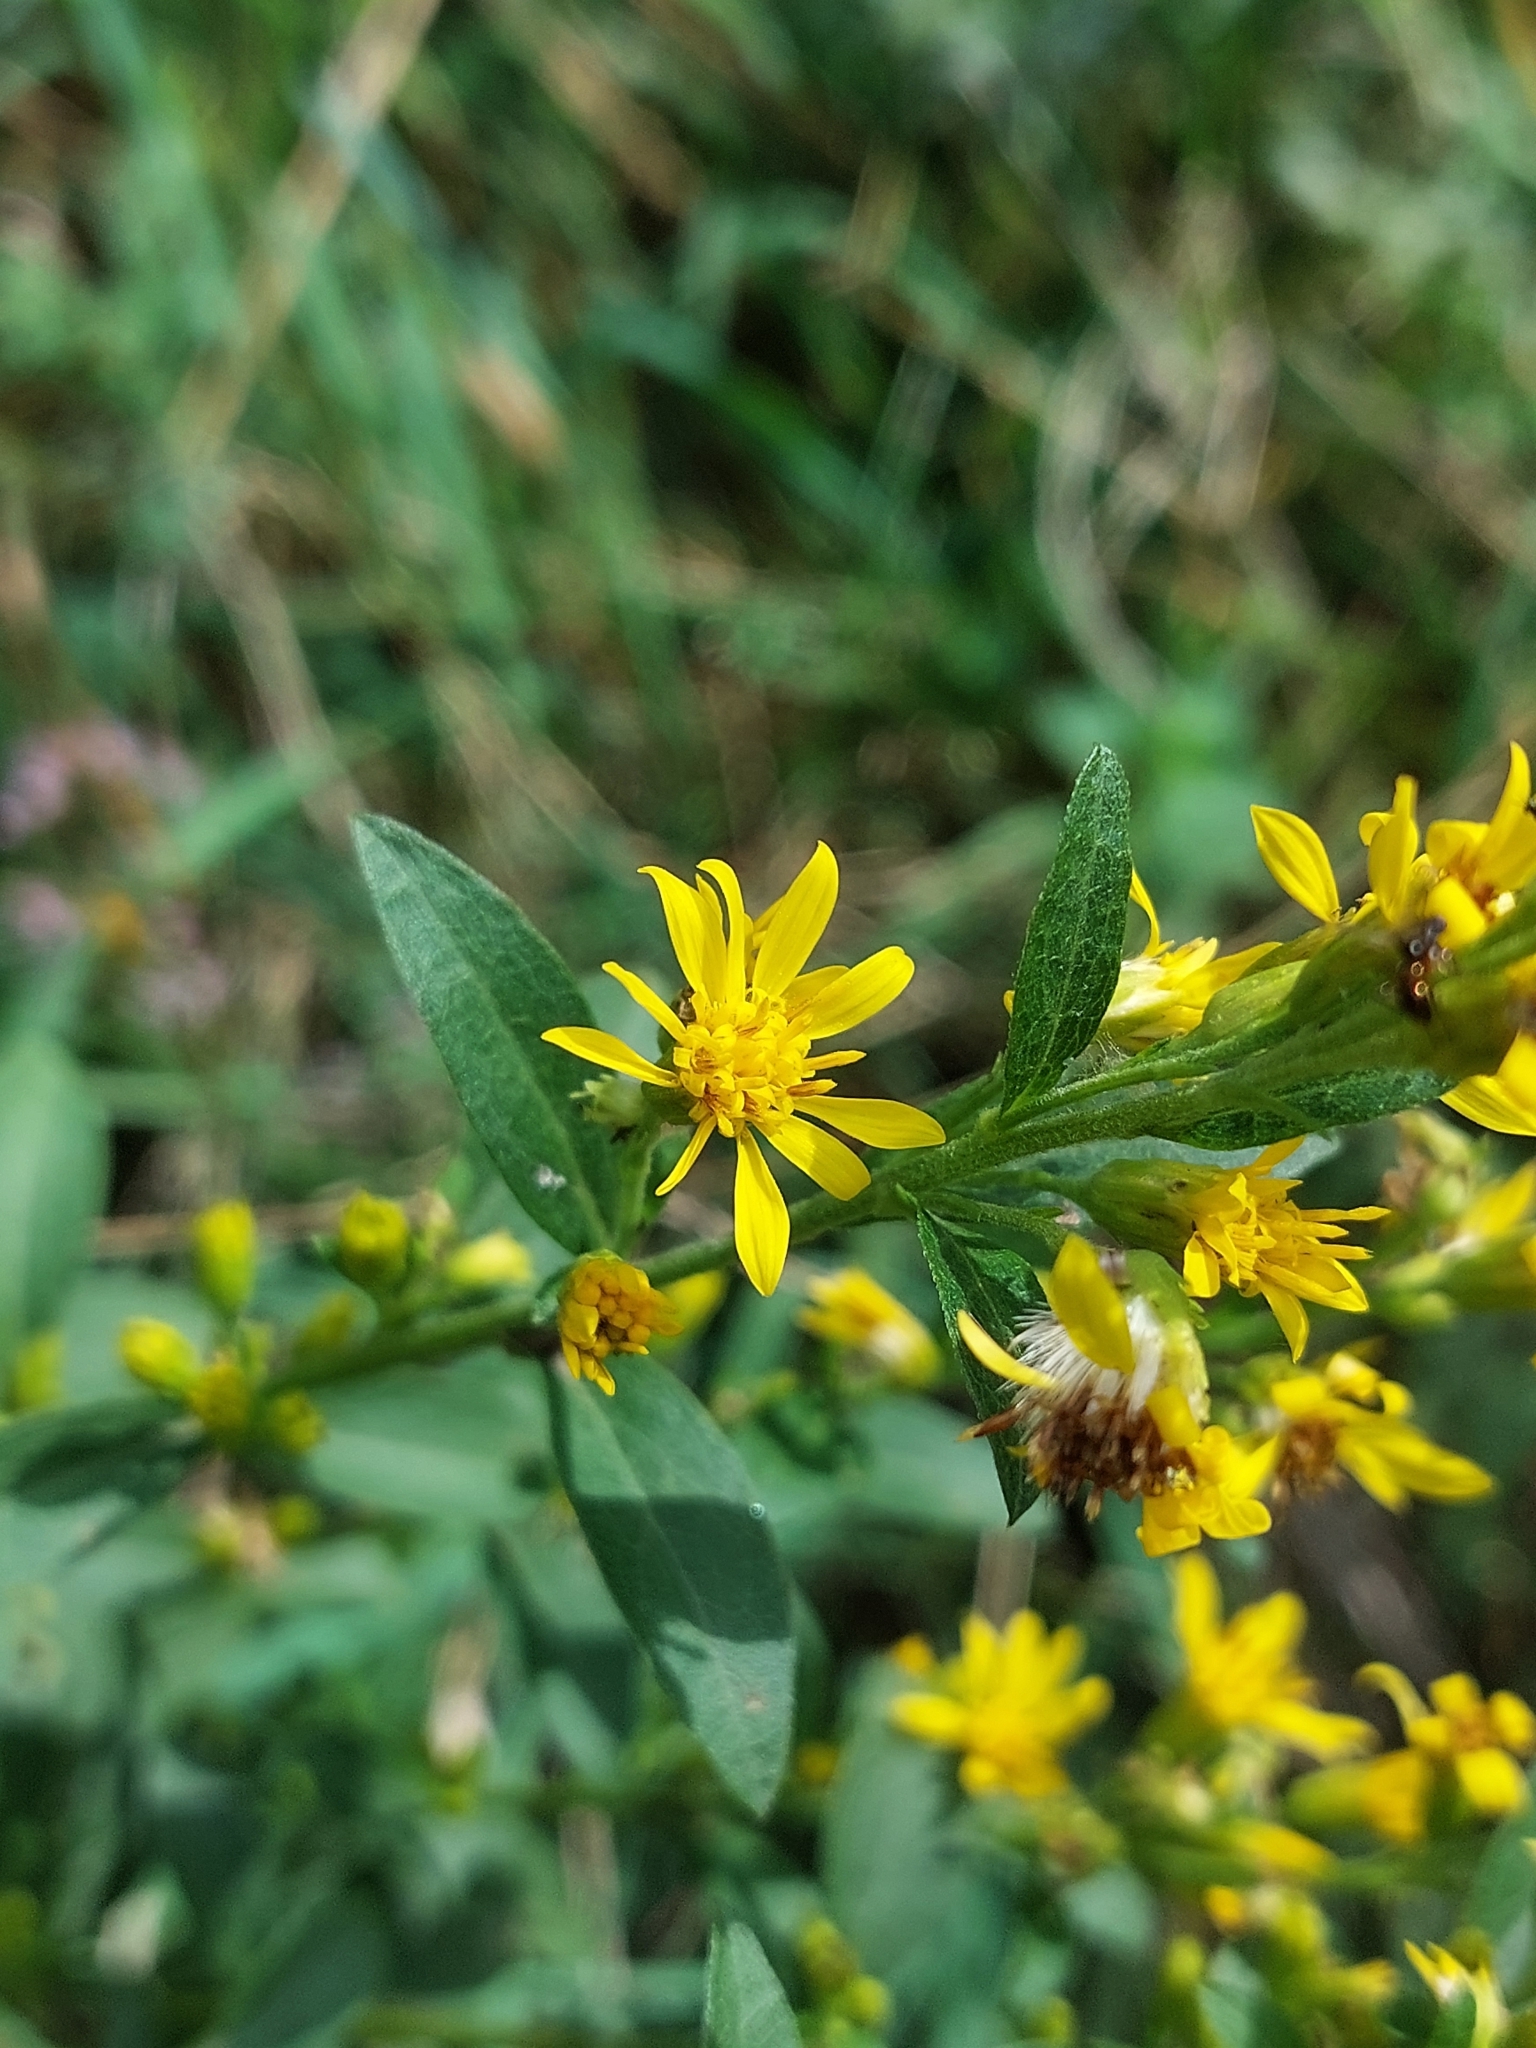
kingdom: Plantae
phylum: Tracheophyta
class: Magnoliopsida
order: Asterales
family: Asteraceae
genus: Solidago
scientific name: Solidago virgaurea
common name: Goldenrod
